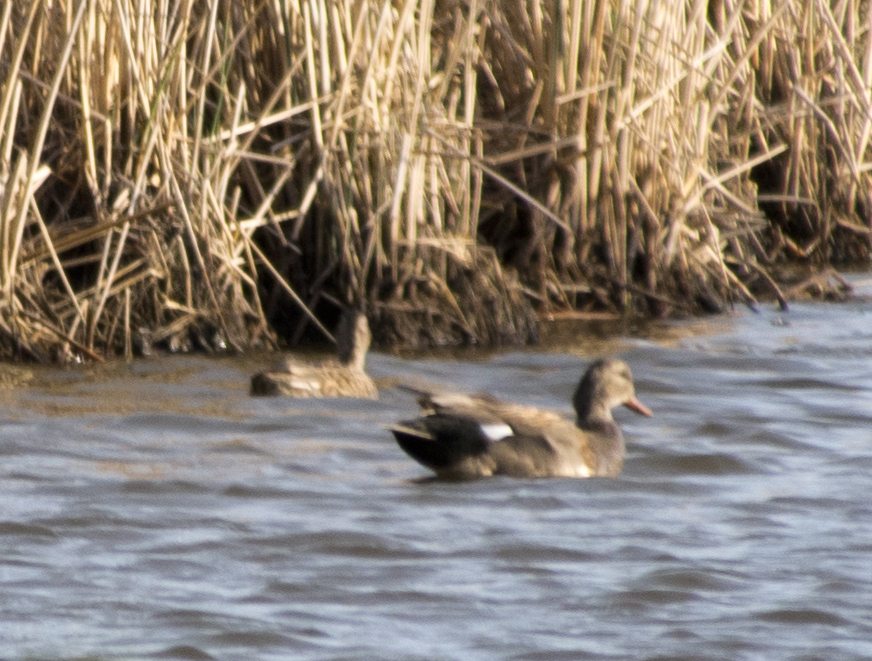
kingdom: Animalia
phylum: Chordata
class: Aves
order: Anseriformes
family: Anatidae
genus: Mareca
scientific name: Mareca strepera
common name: Gadwall
